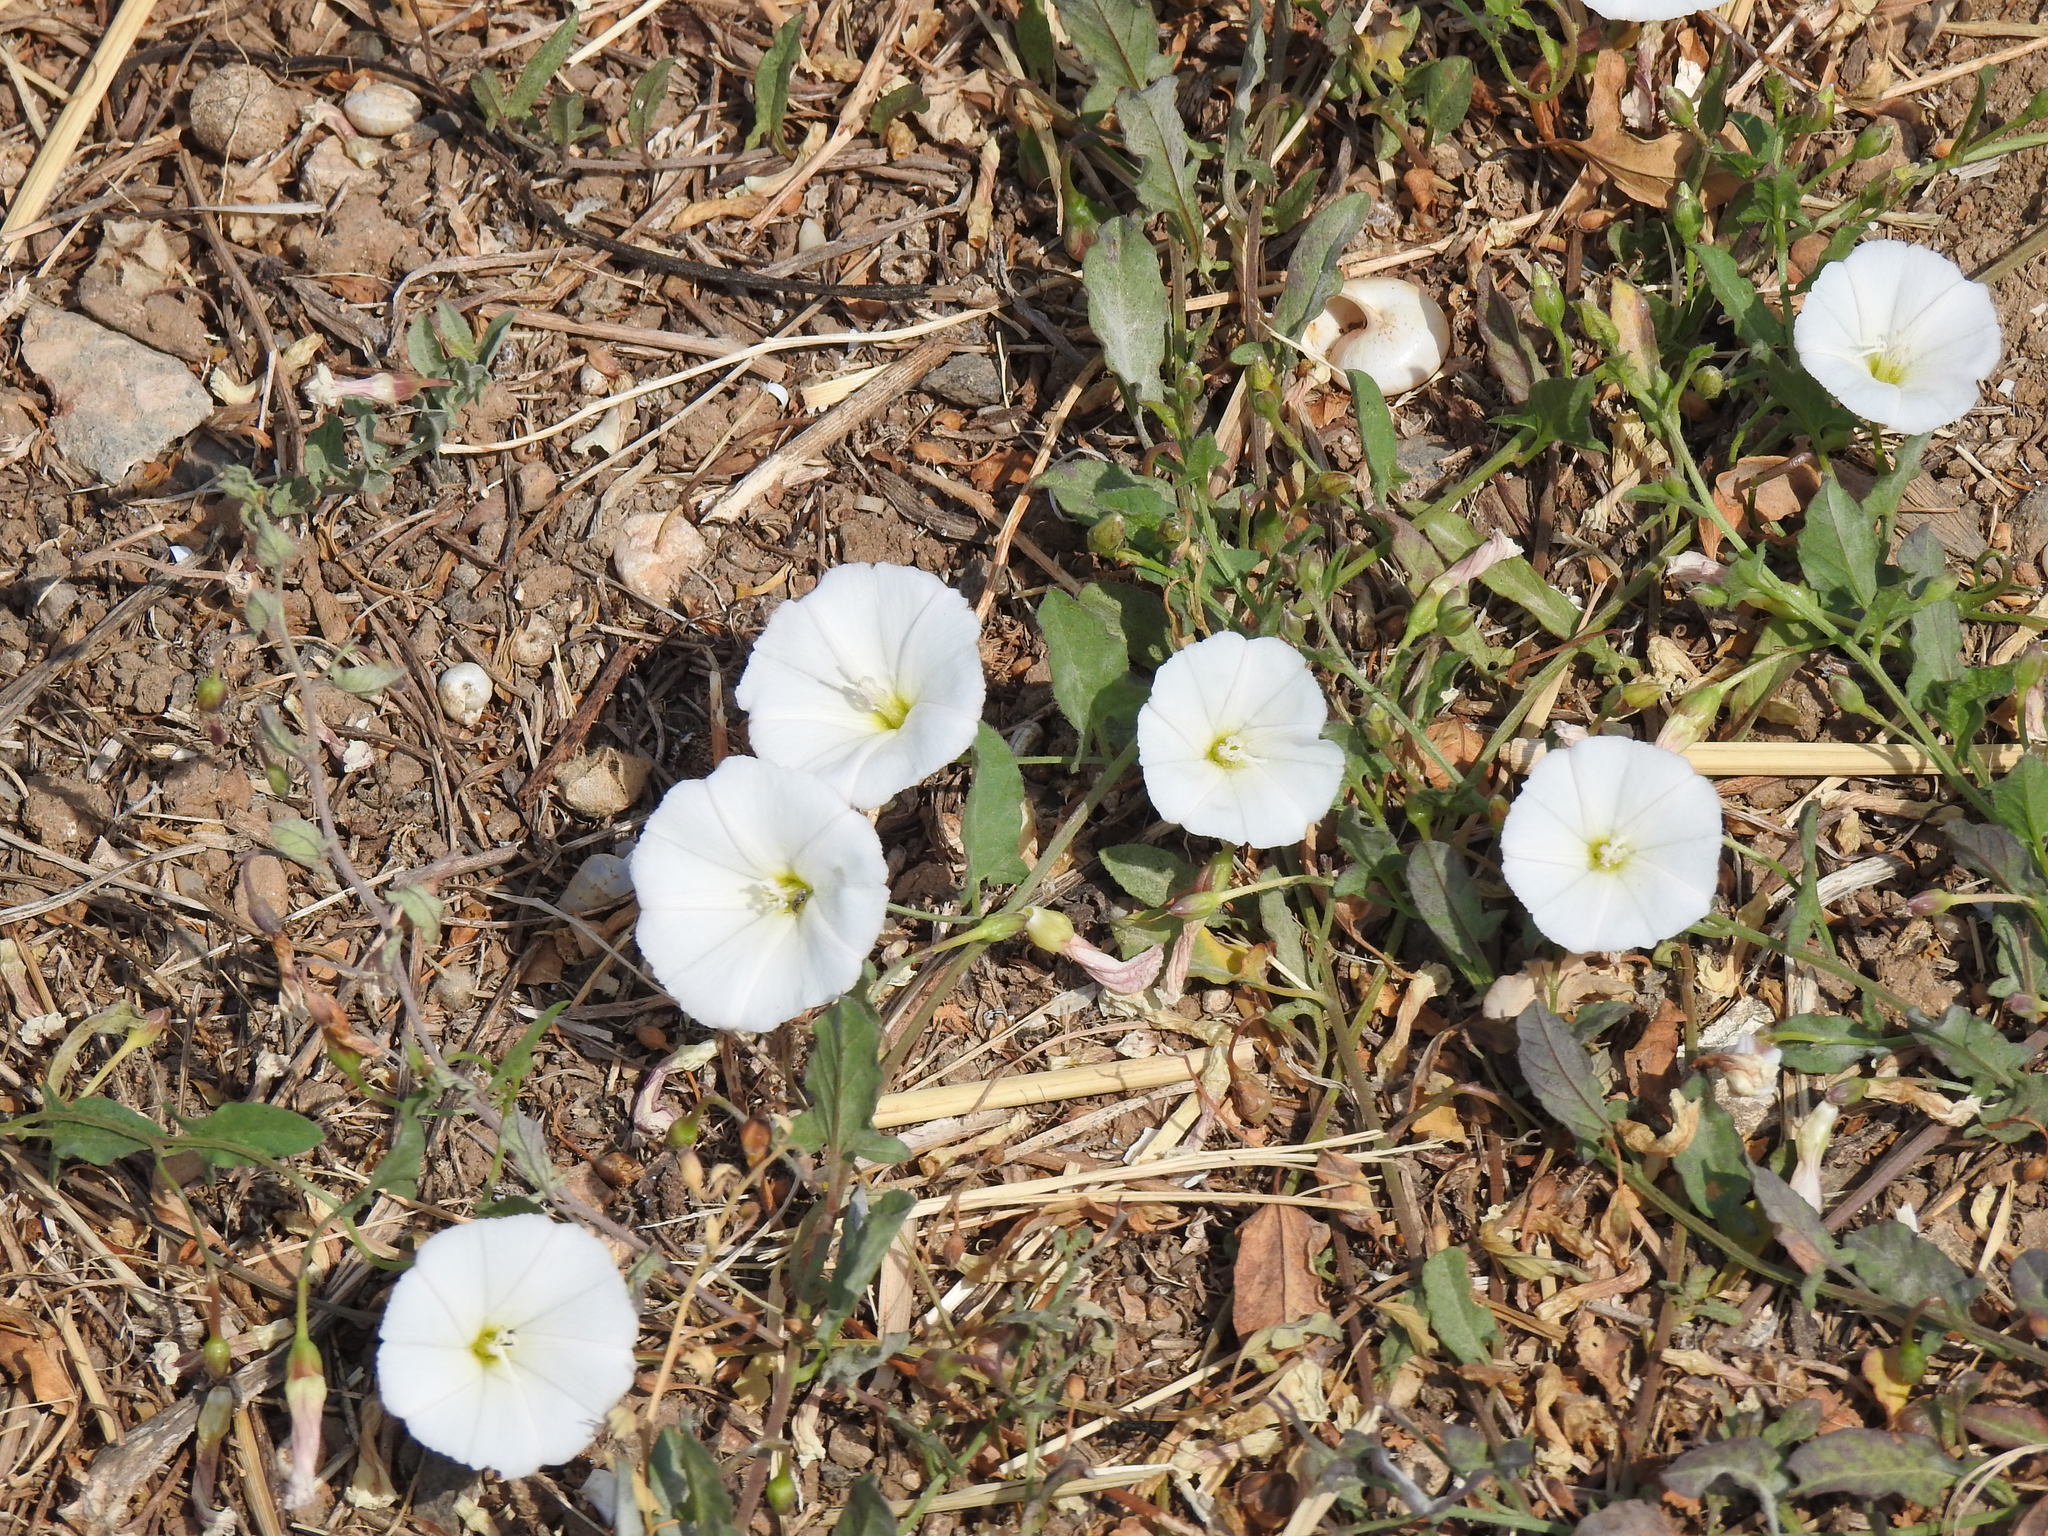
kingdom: Plantae
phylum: Tracheophyta
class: Magnoliopsida
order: Solanales
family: Convolvulaceae
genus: Convolvulus
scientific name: Convolvulus arvensis
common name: Field bindweed
